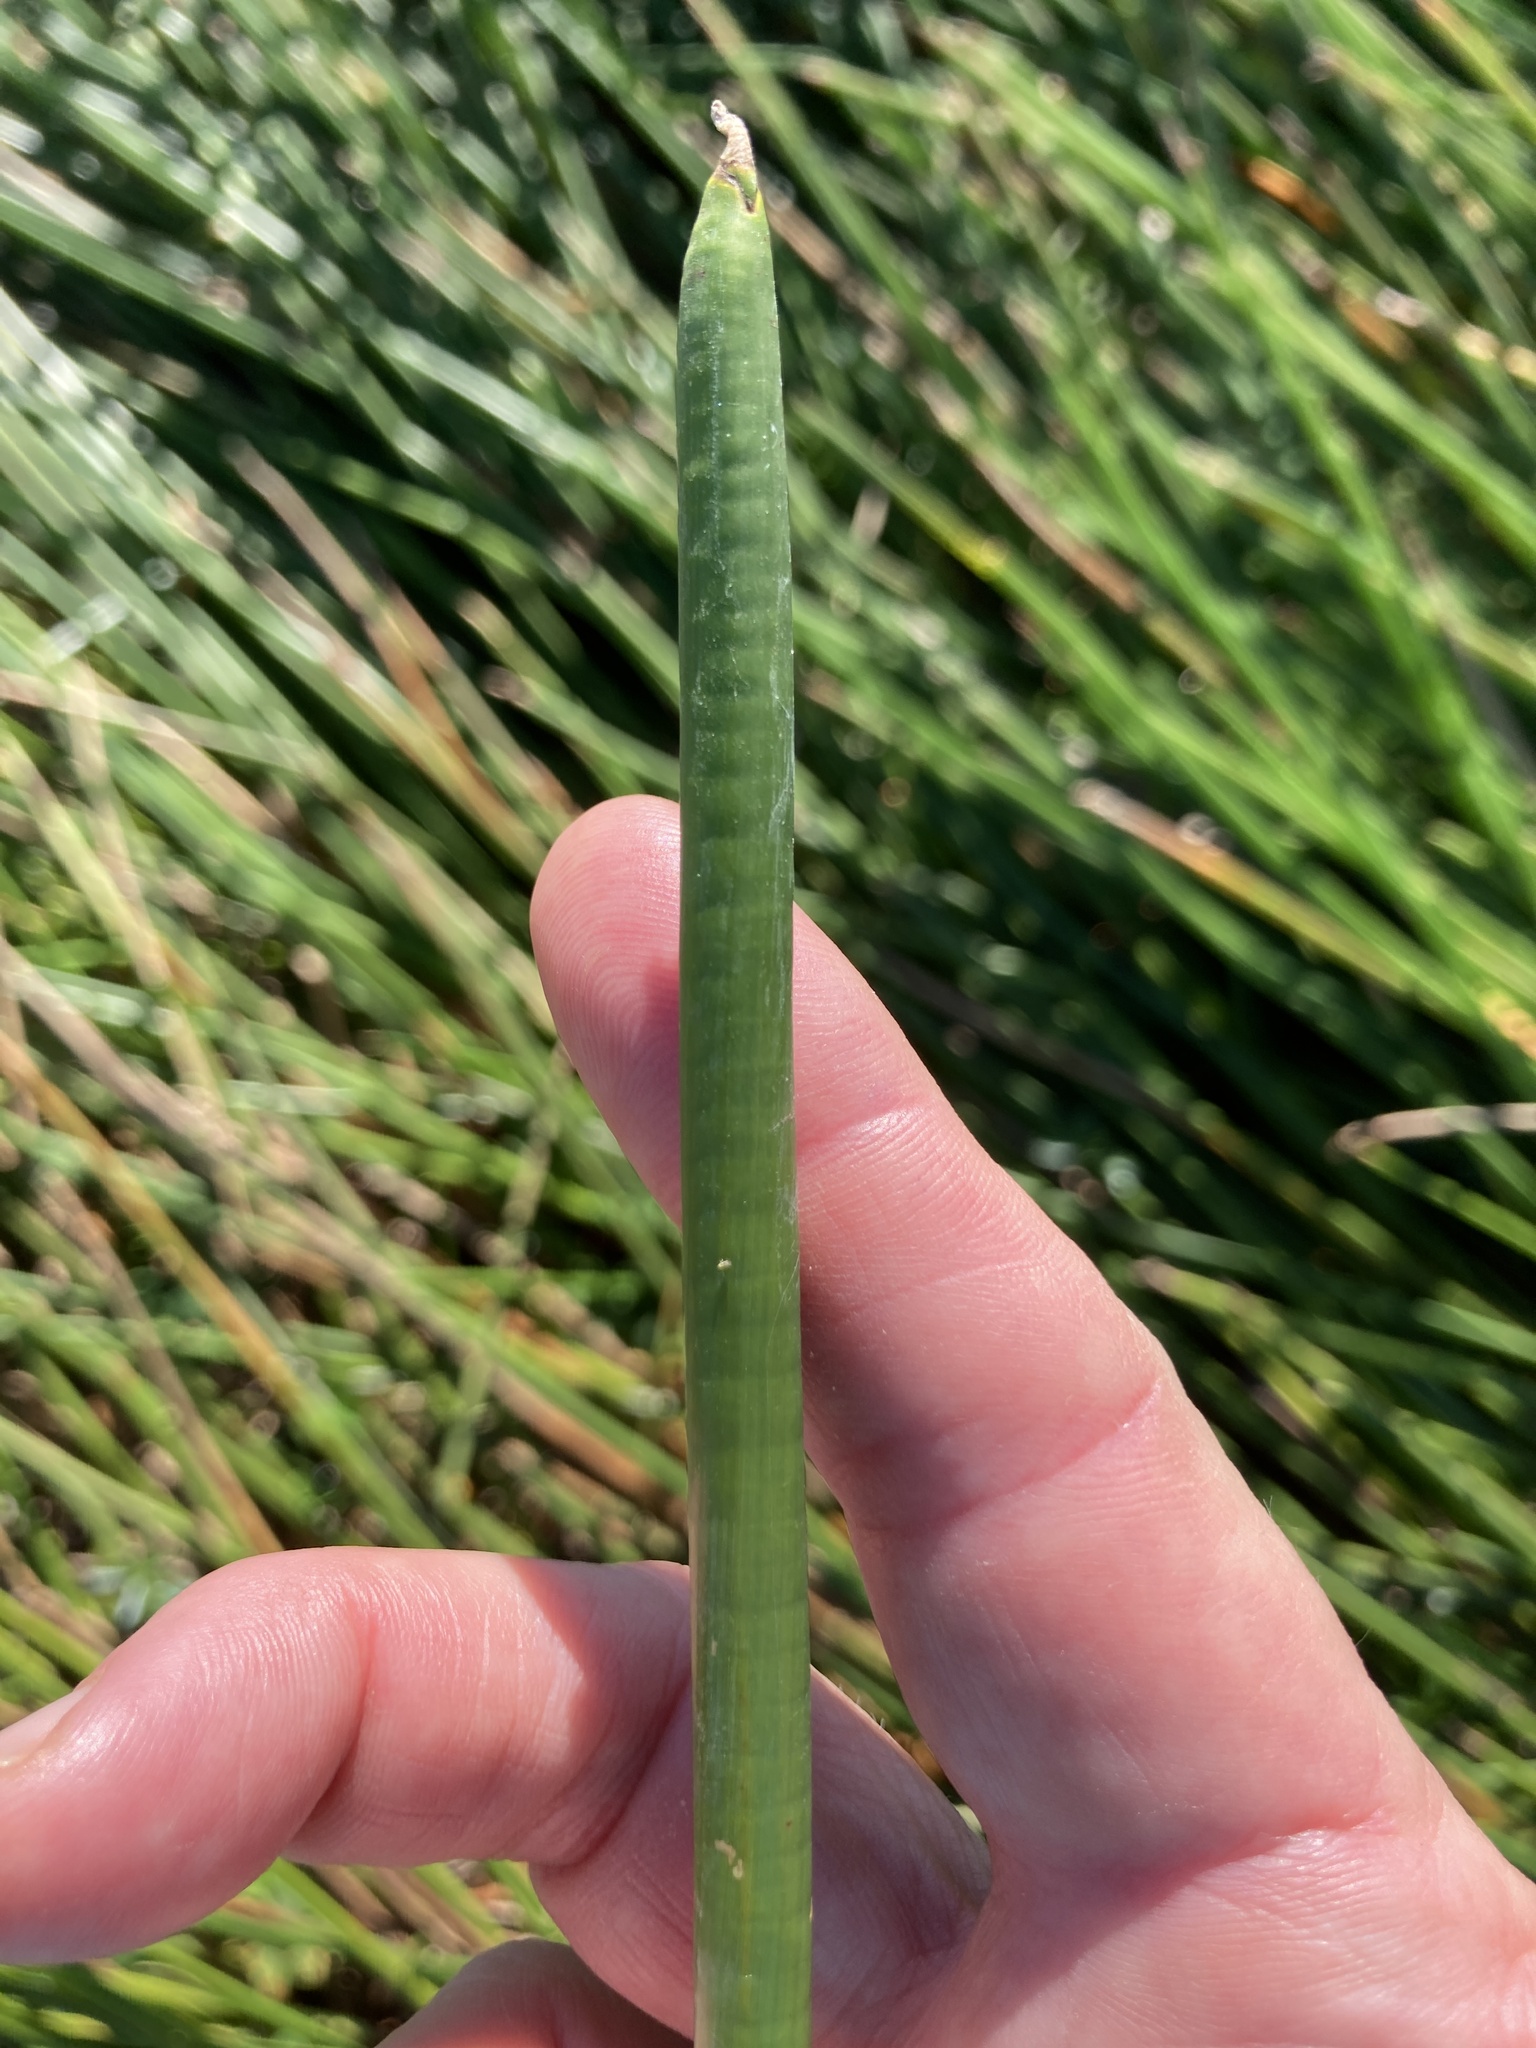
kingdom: Plantae
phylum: Tracheophyta
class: Liliopsida
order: Poales
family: Cyperaceae
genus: Eleocharis
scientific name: Eleocharis dulcis
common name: Chinese water chestnut
